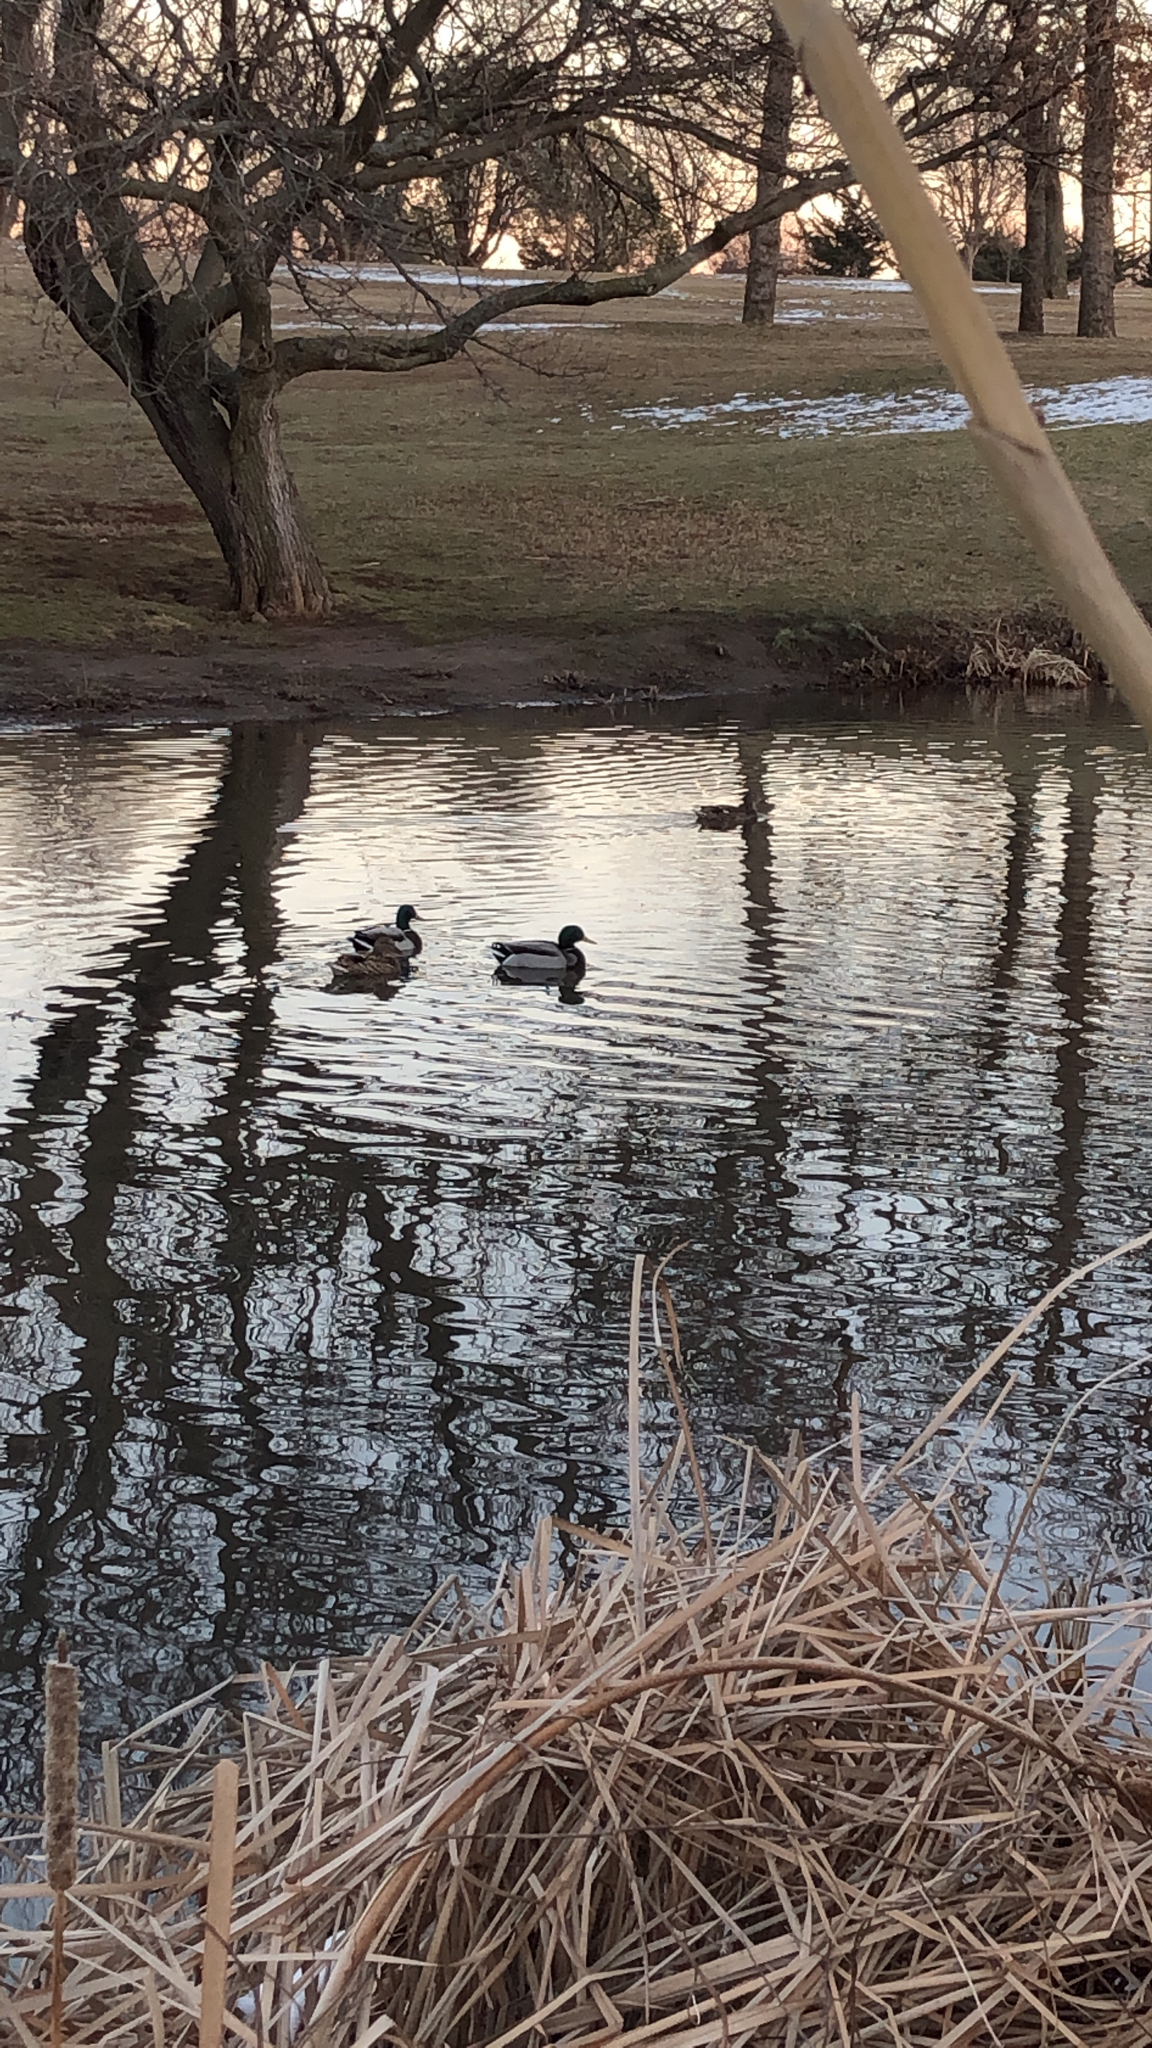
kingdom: Animalia
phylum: Chordata
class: Aves
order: Anseriformes
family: Anatidae
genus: Anas
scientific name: Anas platyrhynchos
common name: Mallard
